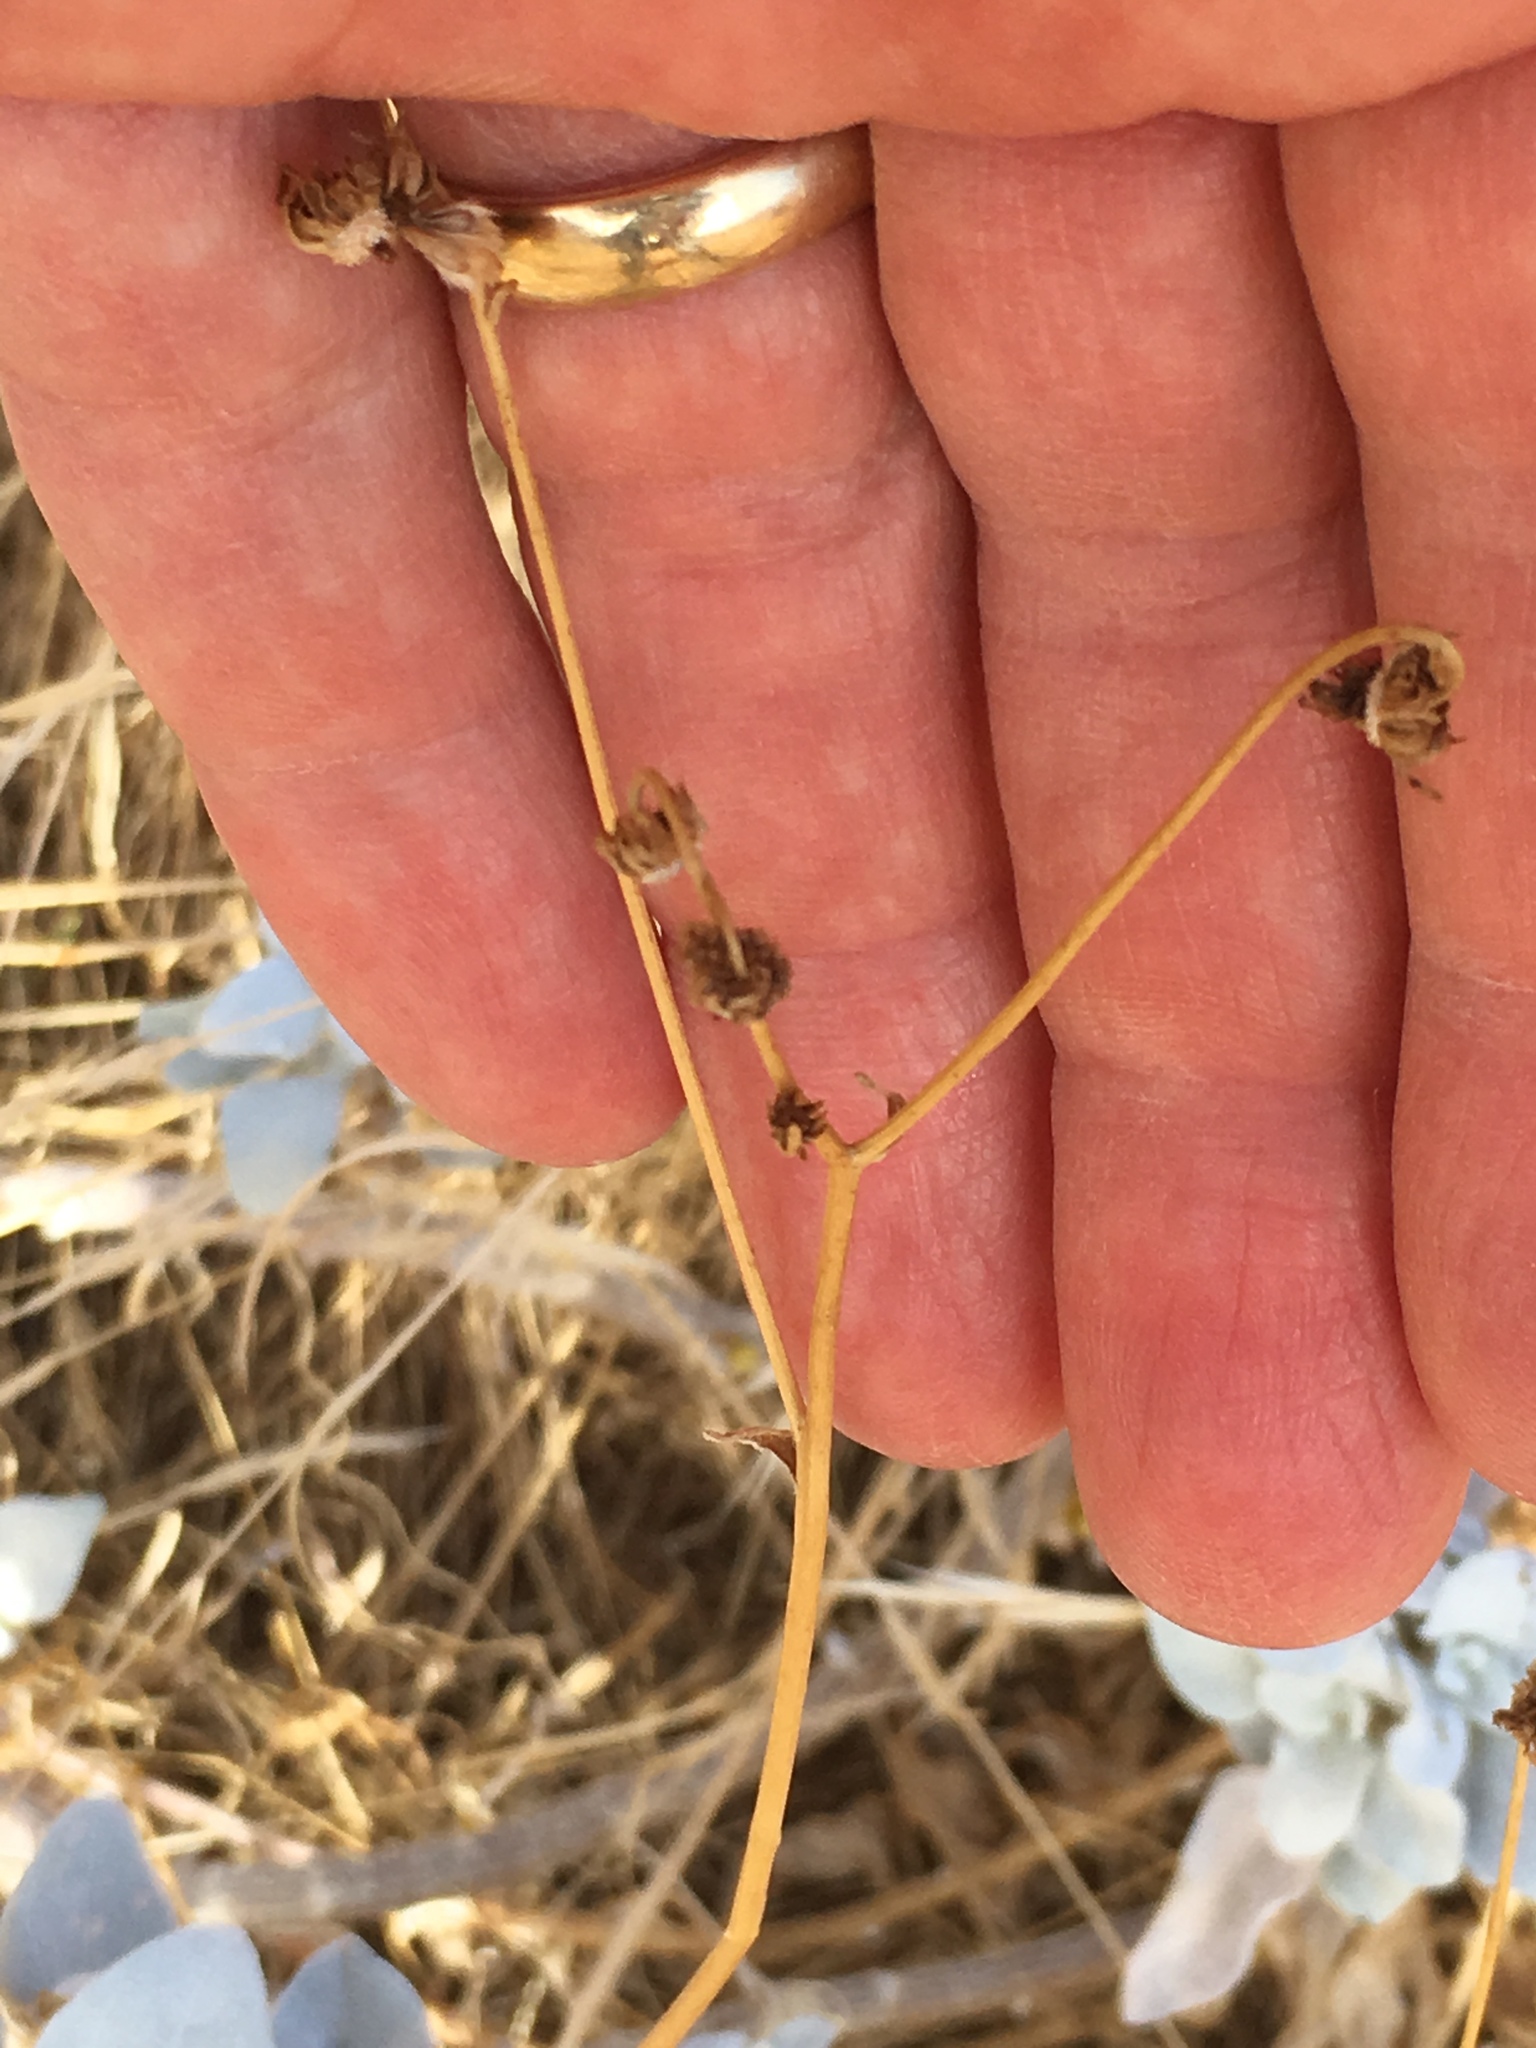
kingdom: Plantae
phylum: Tracheophyta
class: Magnoliopsida
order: Asterales
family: Asteraceae
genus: Encelia
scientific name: Encelia farinosa
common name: Brittlebush
